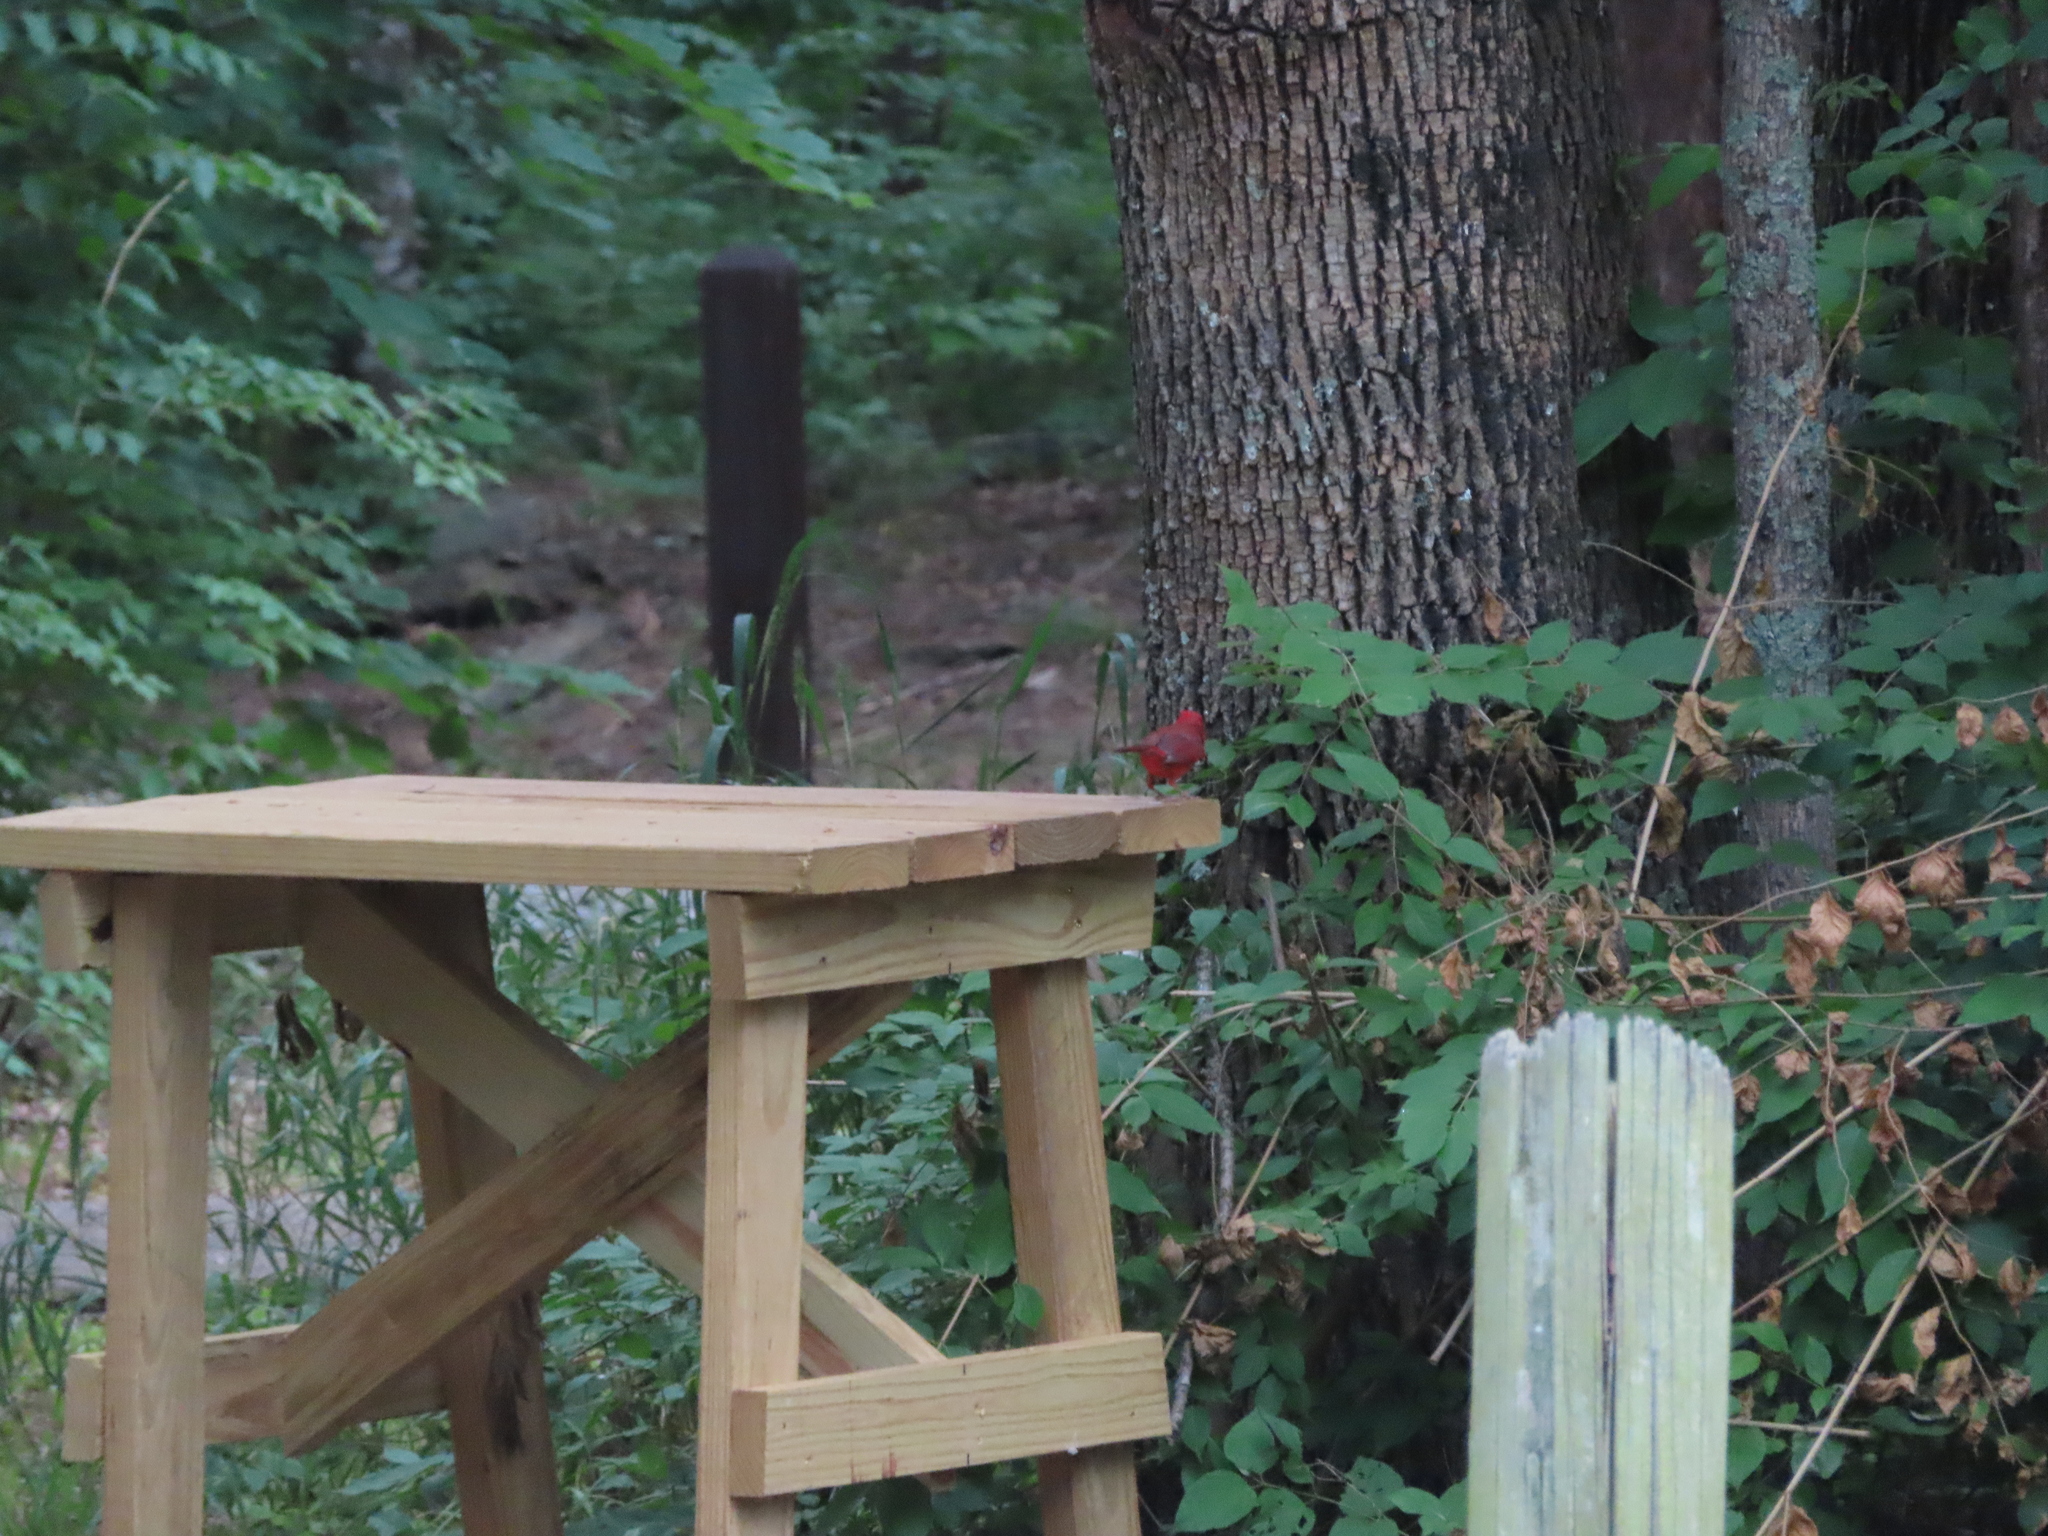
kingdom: Animalia
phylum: Chordata
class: Aves
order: Passeriformes
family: Cardinalidae
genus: Cardinalis
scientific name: Cardinalis cardinalis
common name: Northern cardinal
